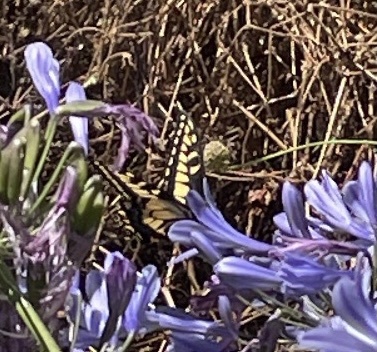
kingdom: Animalia
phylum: Arthropoda
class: Insecta
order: Lepidoptera
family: Papilionidae
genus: Papilio
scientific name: Papilio zelicaon
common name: Anise swallowtail
